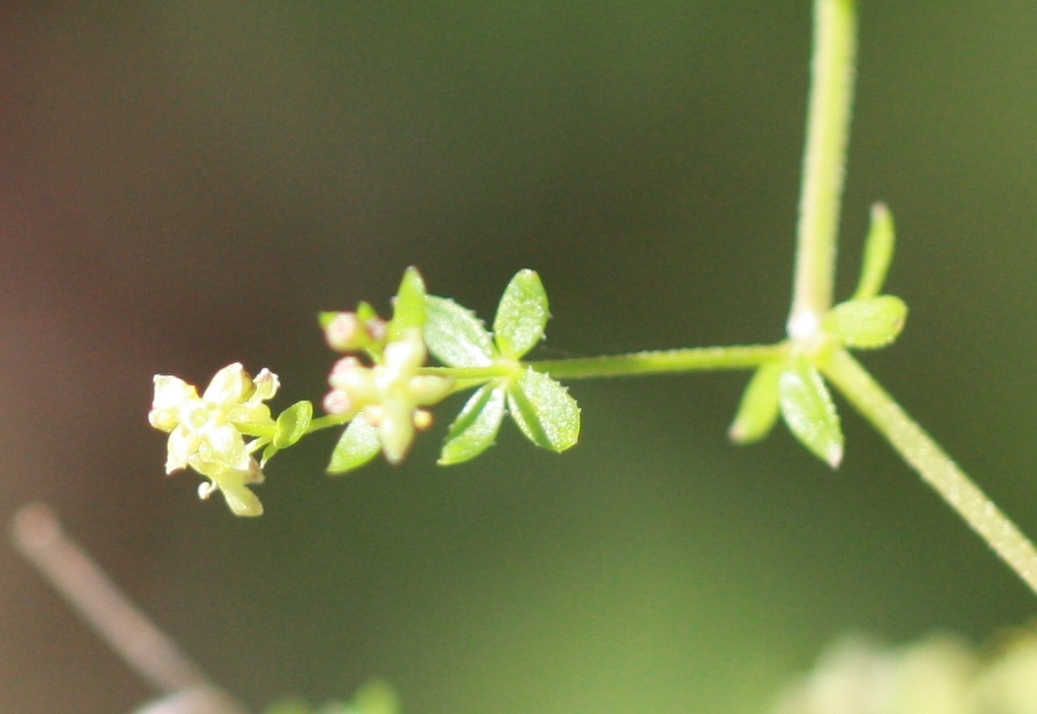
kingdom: Plantae
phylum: Tracheophyta
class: Magnoliopsida
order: Gentianales
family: Rubiaceae
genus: Galium
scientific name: Galium porrigens
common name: Climbing bedstraw
